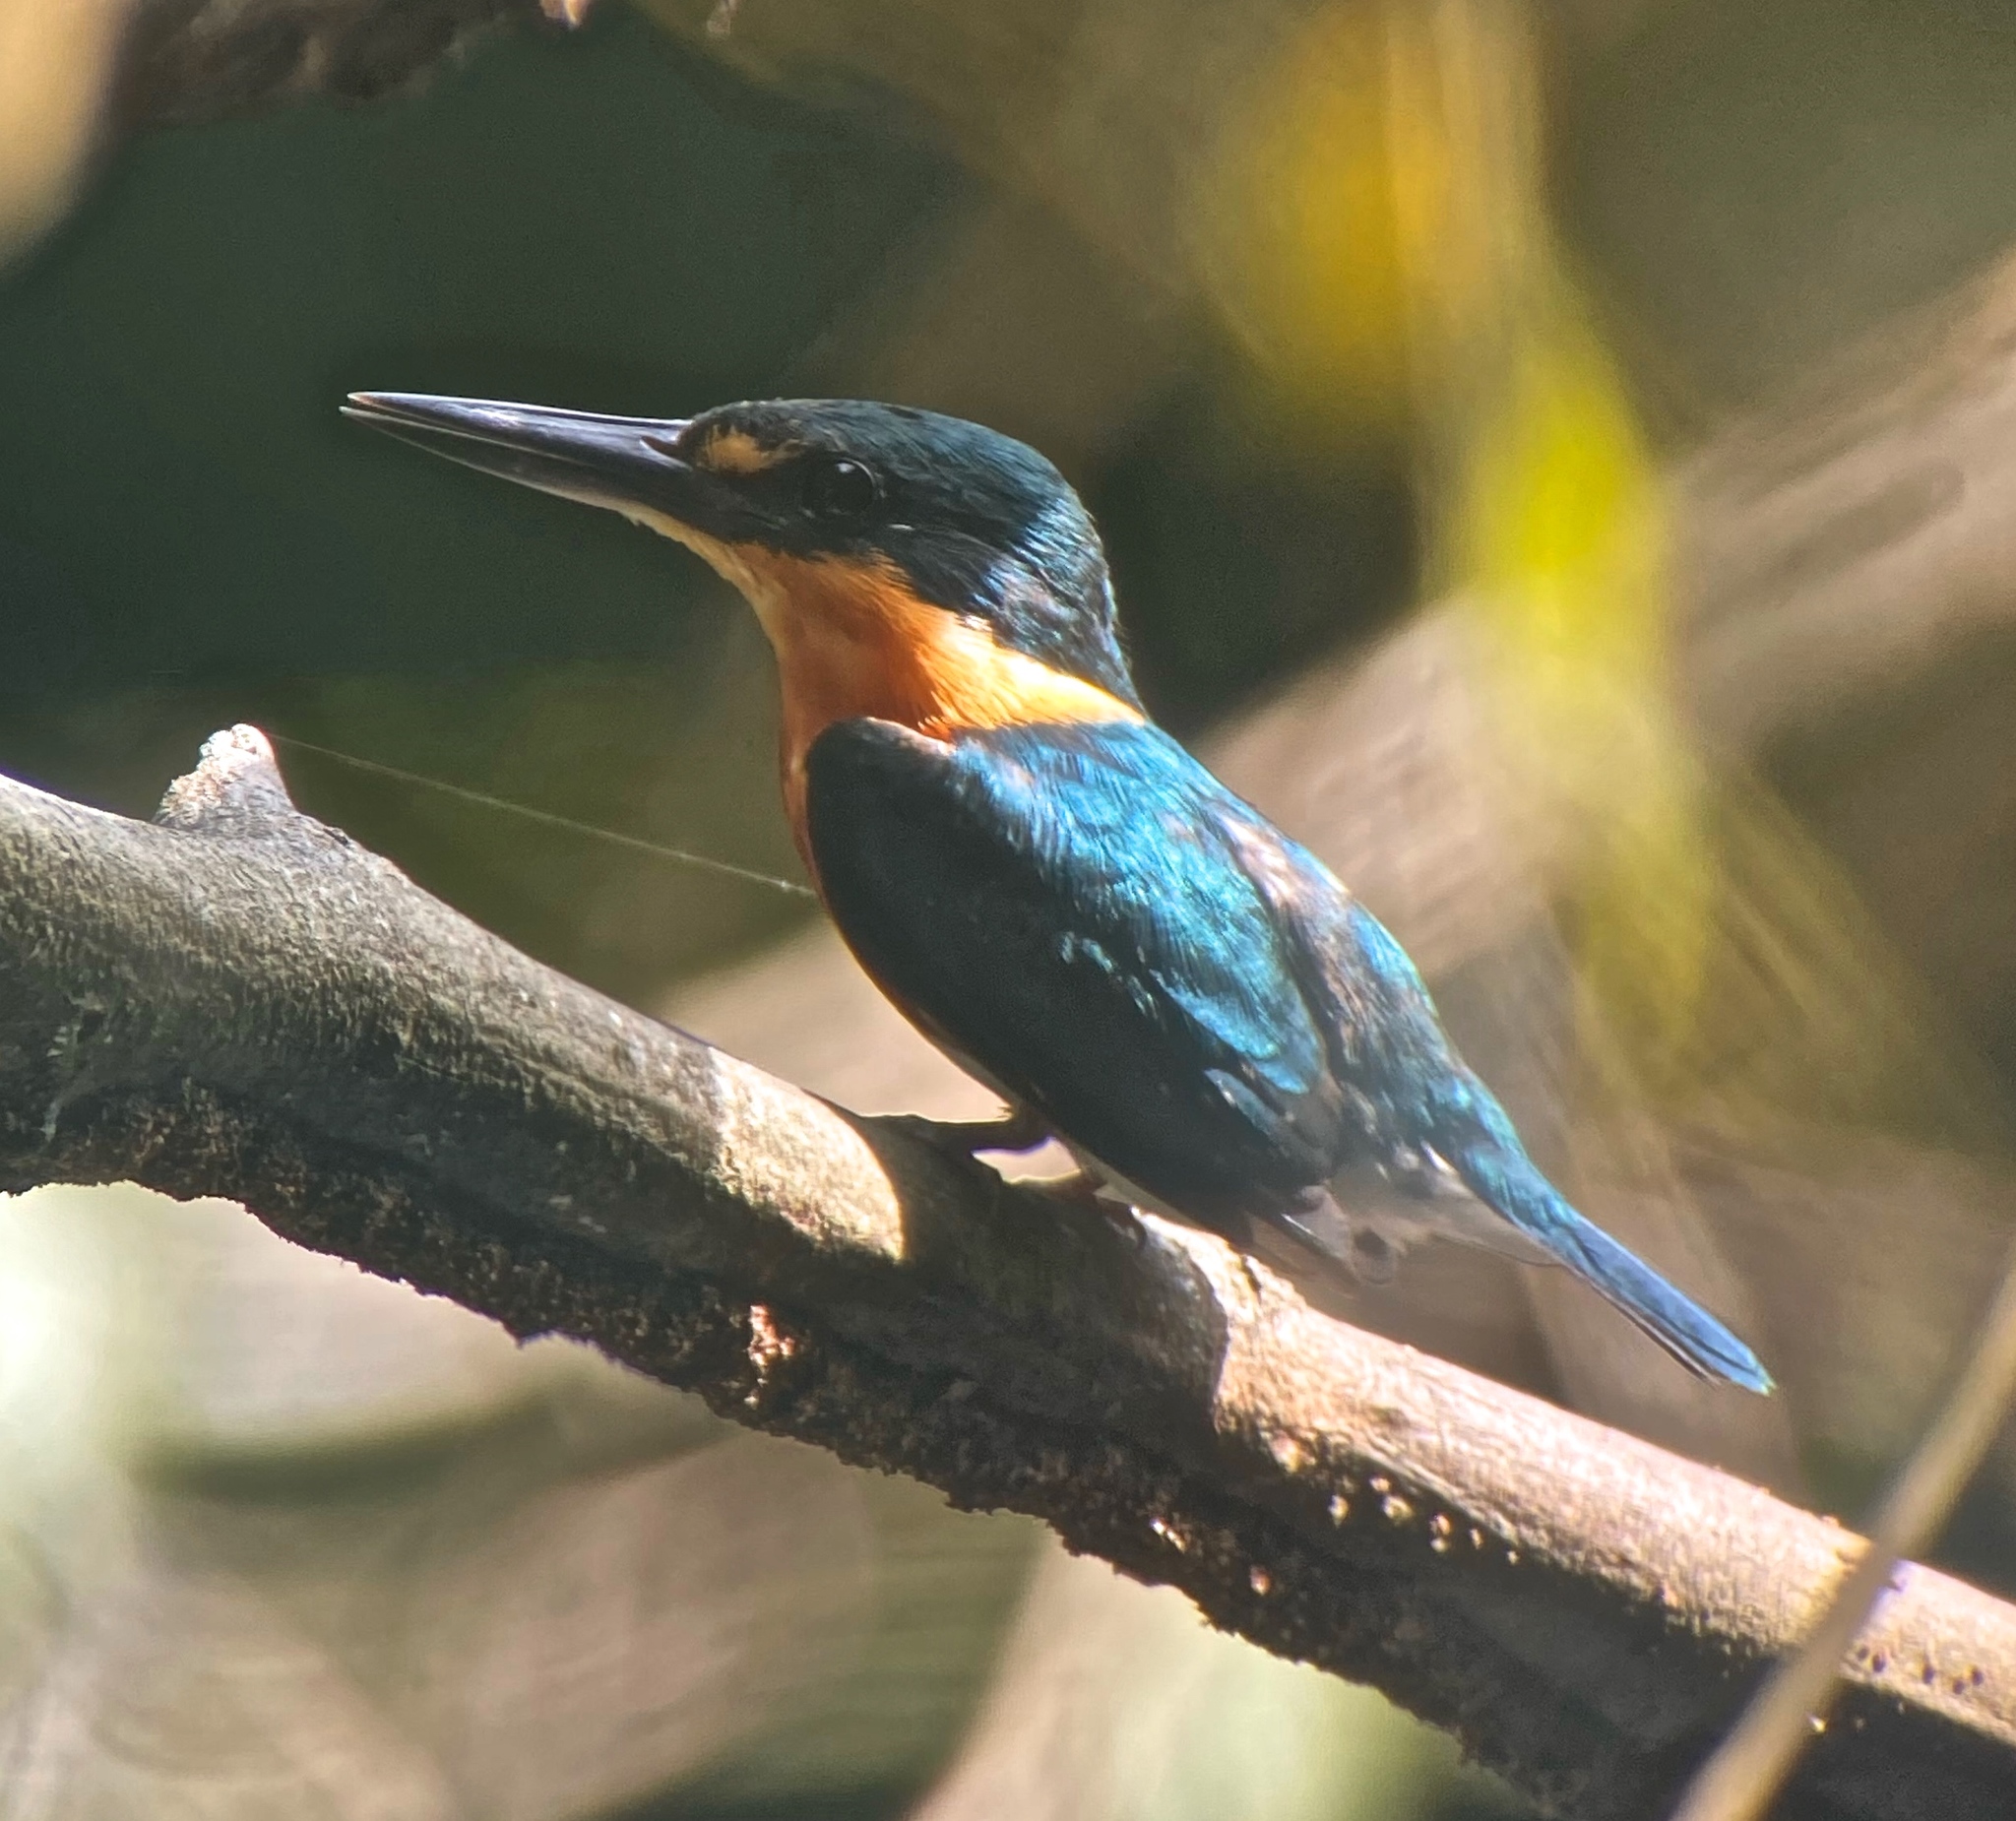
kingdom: Animalia
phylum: Chordata
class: Aves
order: Coraciiformes
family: Alcedinidae
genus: Chloroceryle
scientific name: Chloroceryle aenea
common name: American pygmy kingfisher
